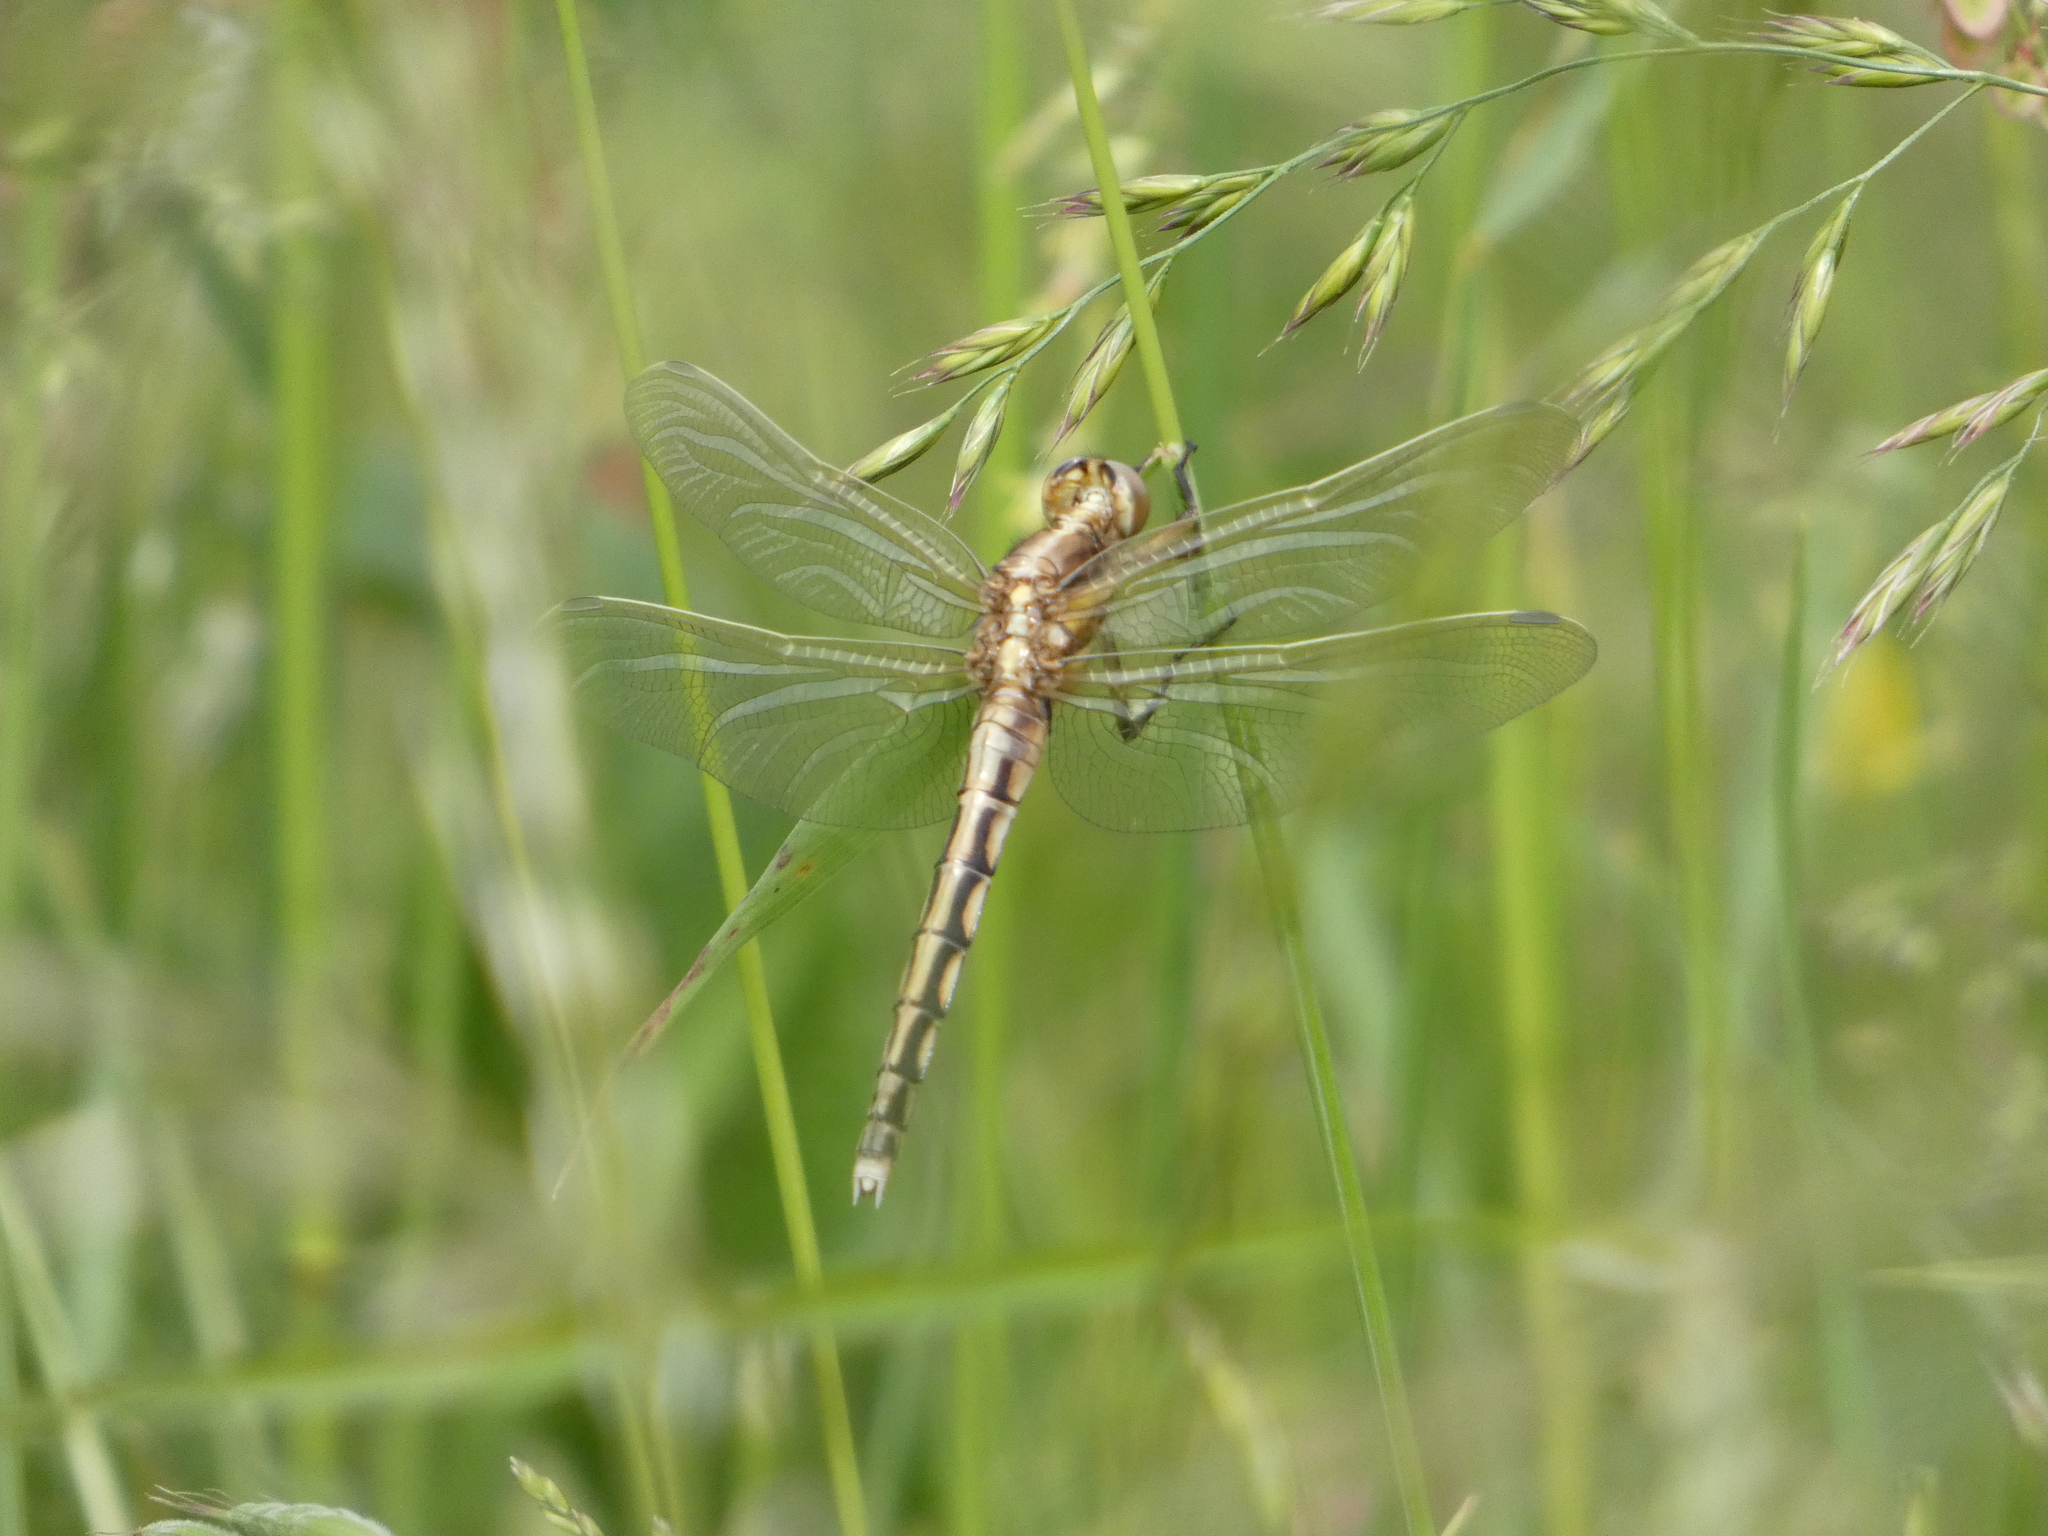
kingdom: Animalia
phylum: Arthropoda
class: Insecta
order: Odonata
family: Libellulidae
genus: Orthetrum
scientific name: Orthetrum albistylum
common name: White-tailed skimmer
